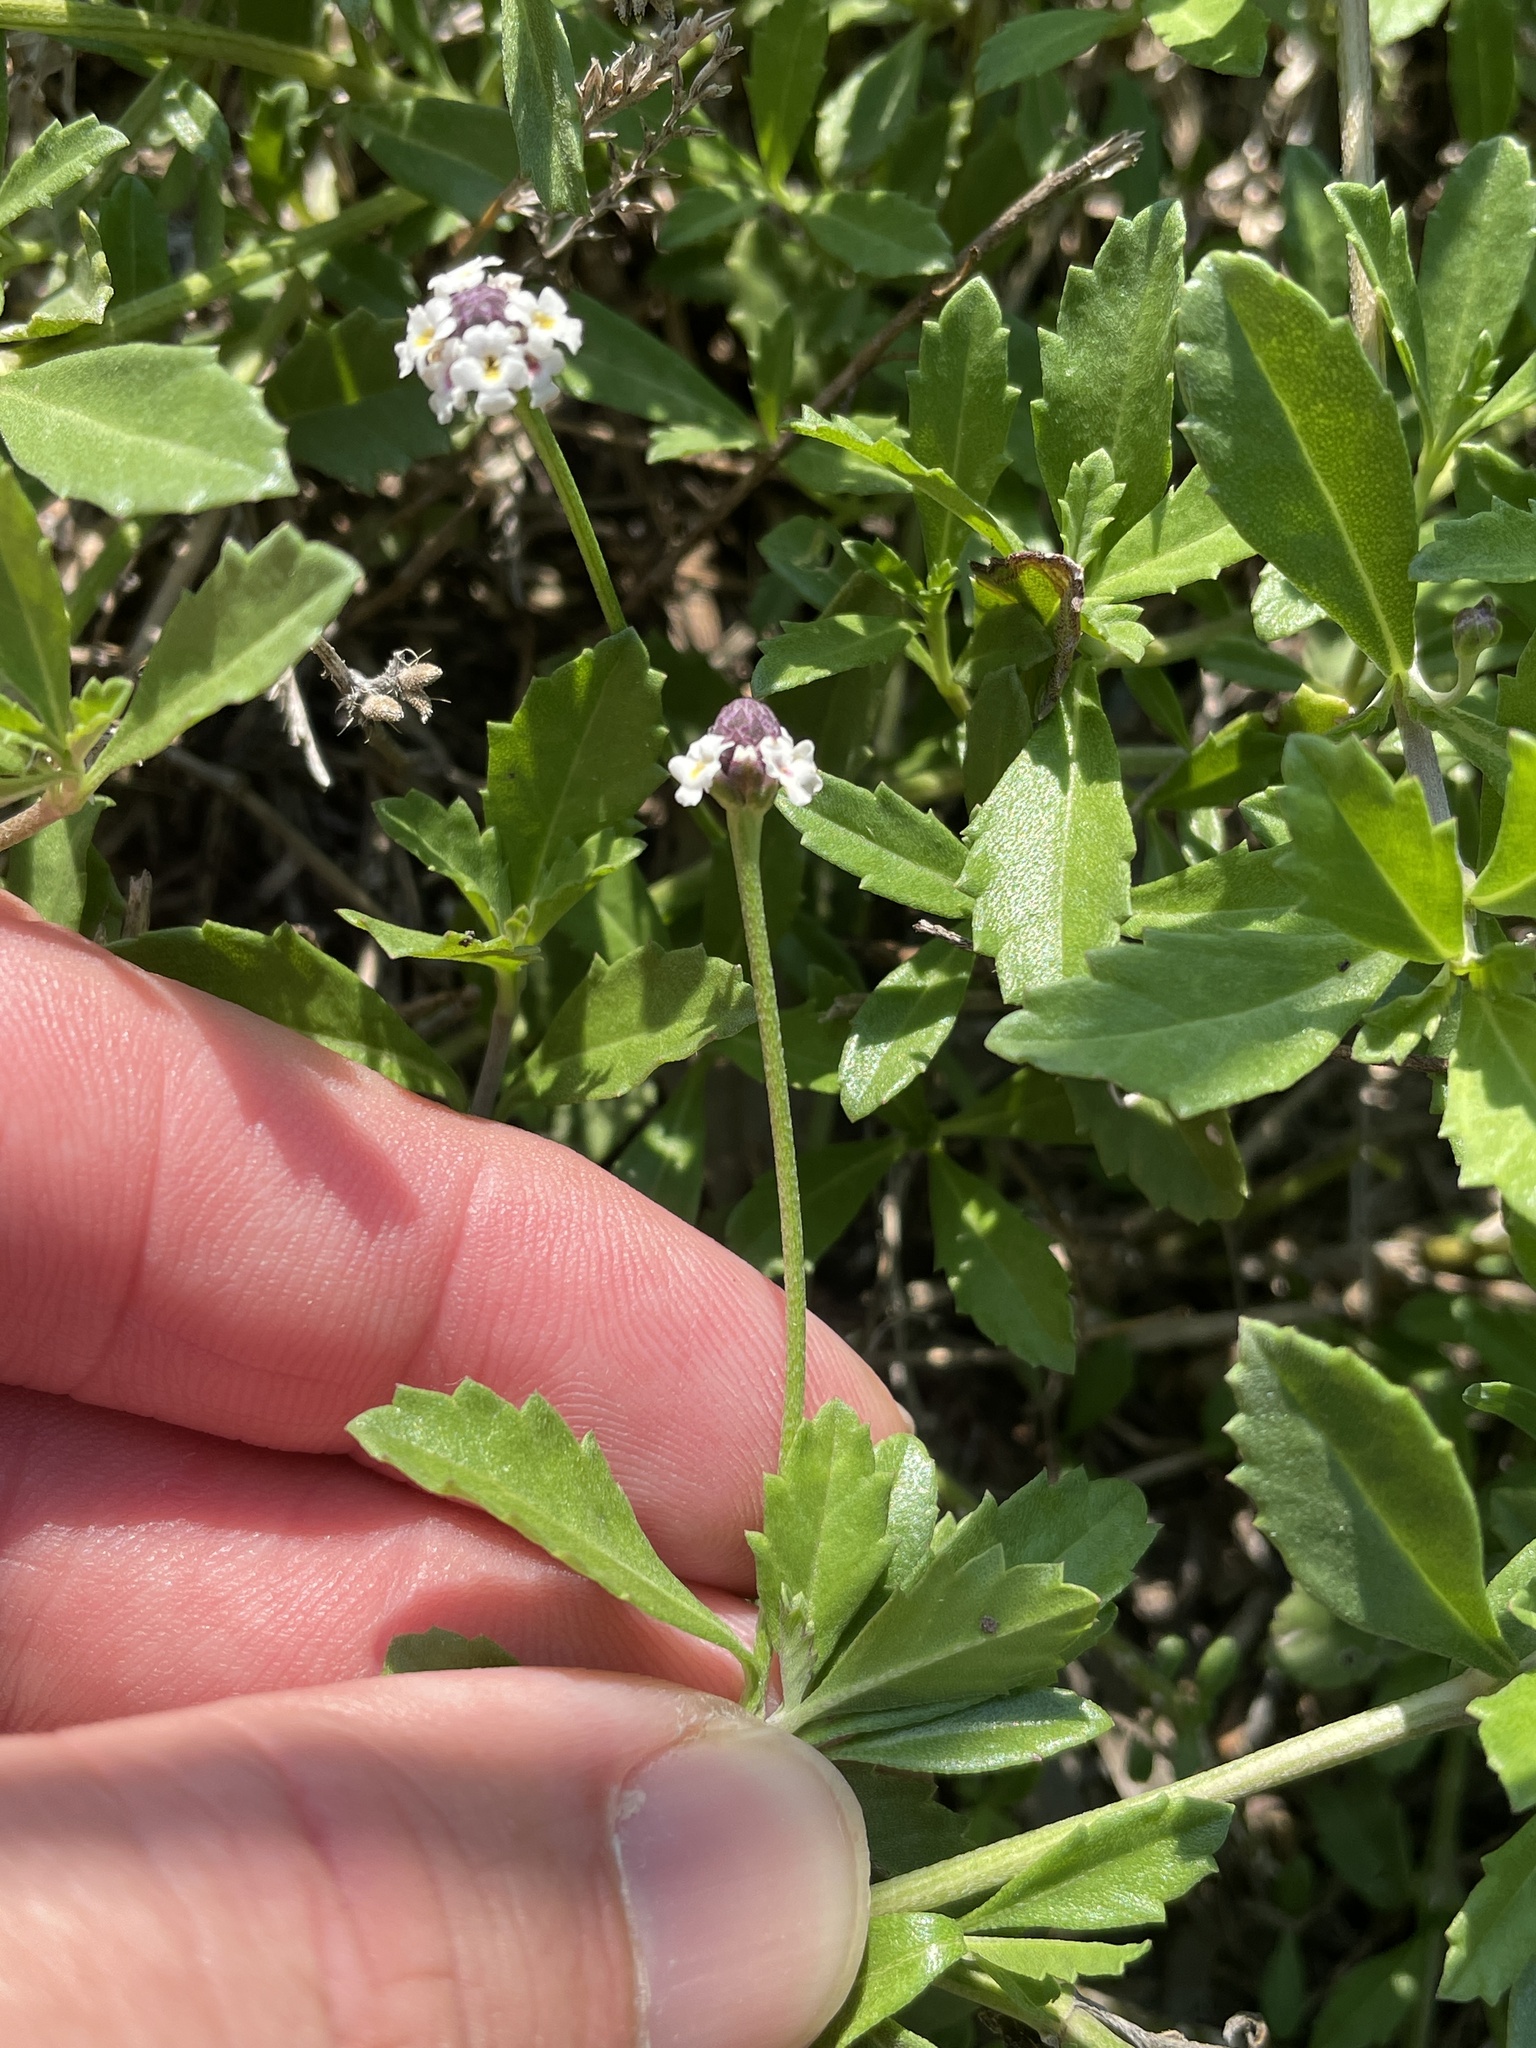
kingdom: Plantae
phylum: Tracheophyta
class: Magnoliopsida
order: Lamiales
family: Verbenaceae
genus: Phyla
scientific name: Phyla nodiflora
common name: Frogfruit
